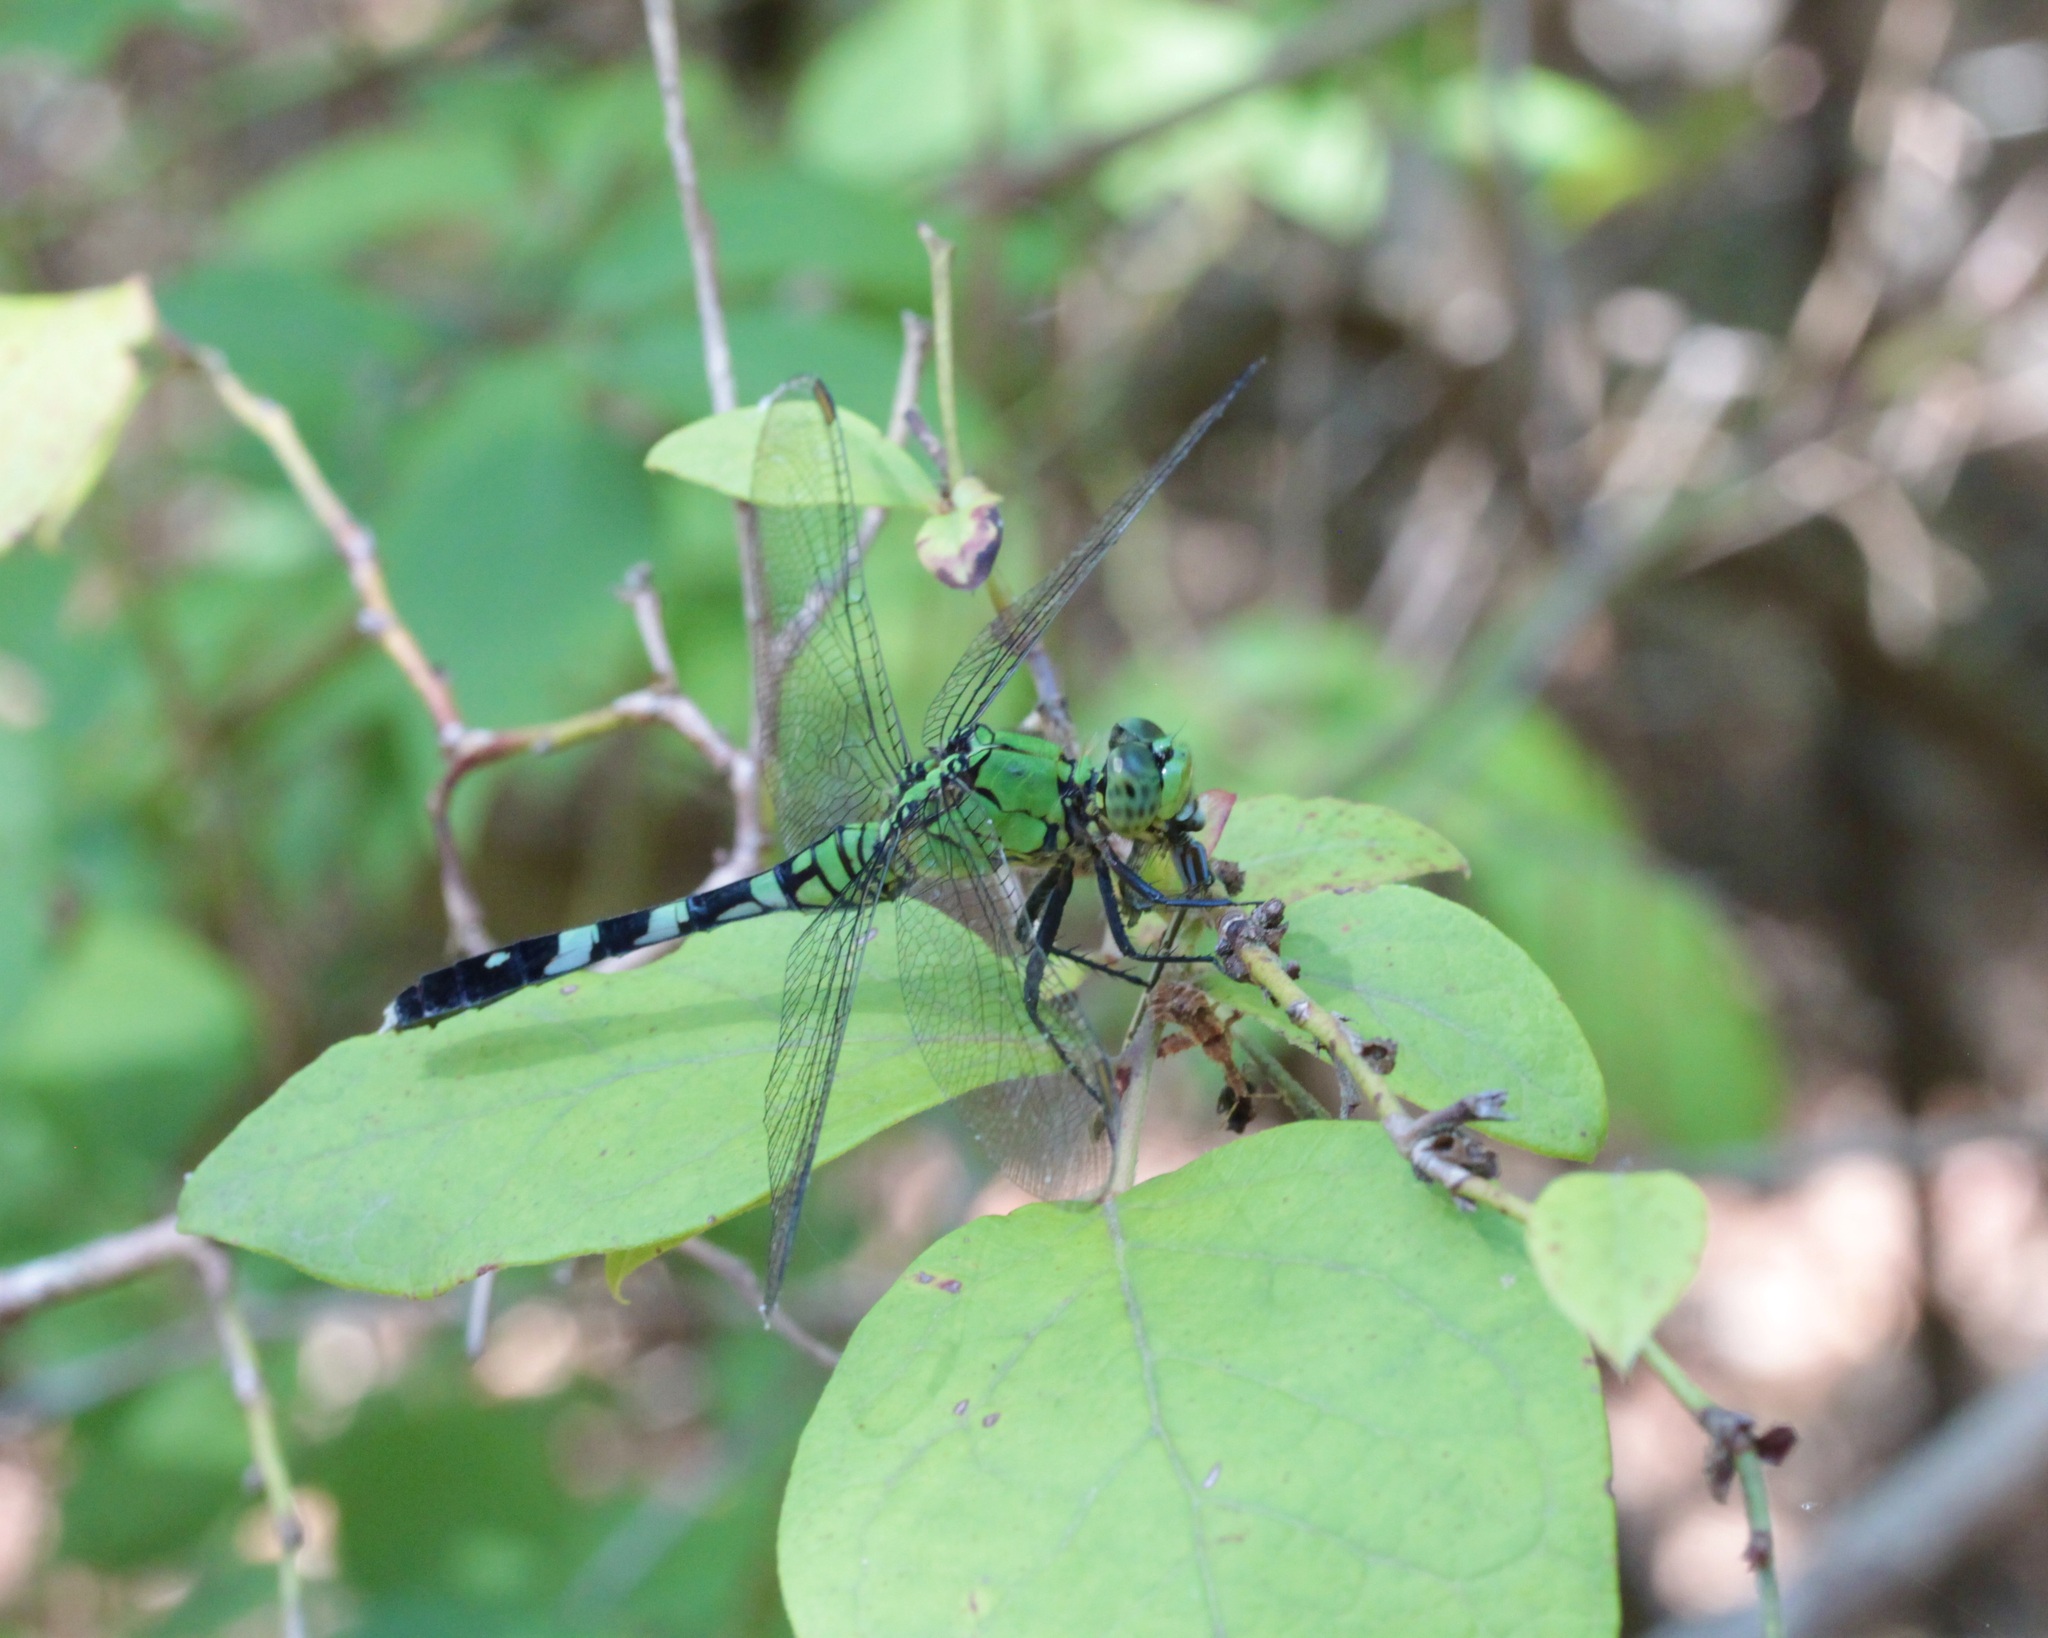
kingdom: Animalia
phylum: Arthropoda
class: Insecta
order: Odonata
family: Libellulidae
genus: Erythemis
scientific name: Erythemis simplicicollis
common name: Eastern pondhawk
